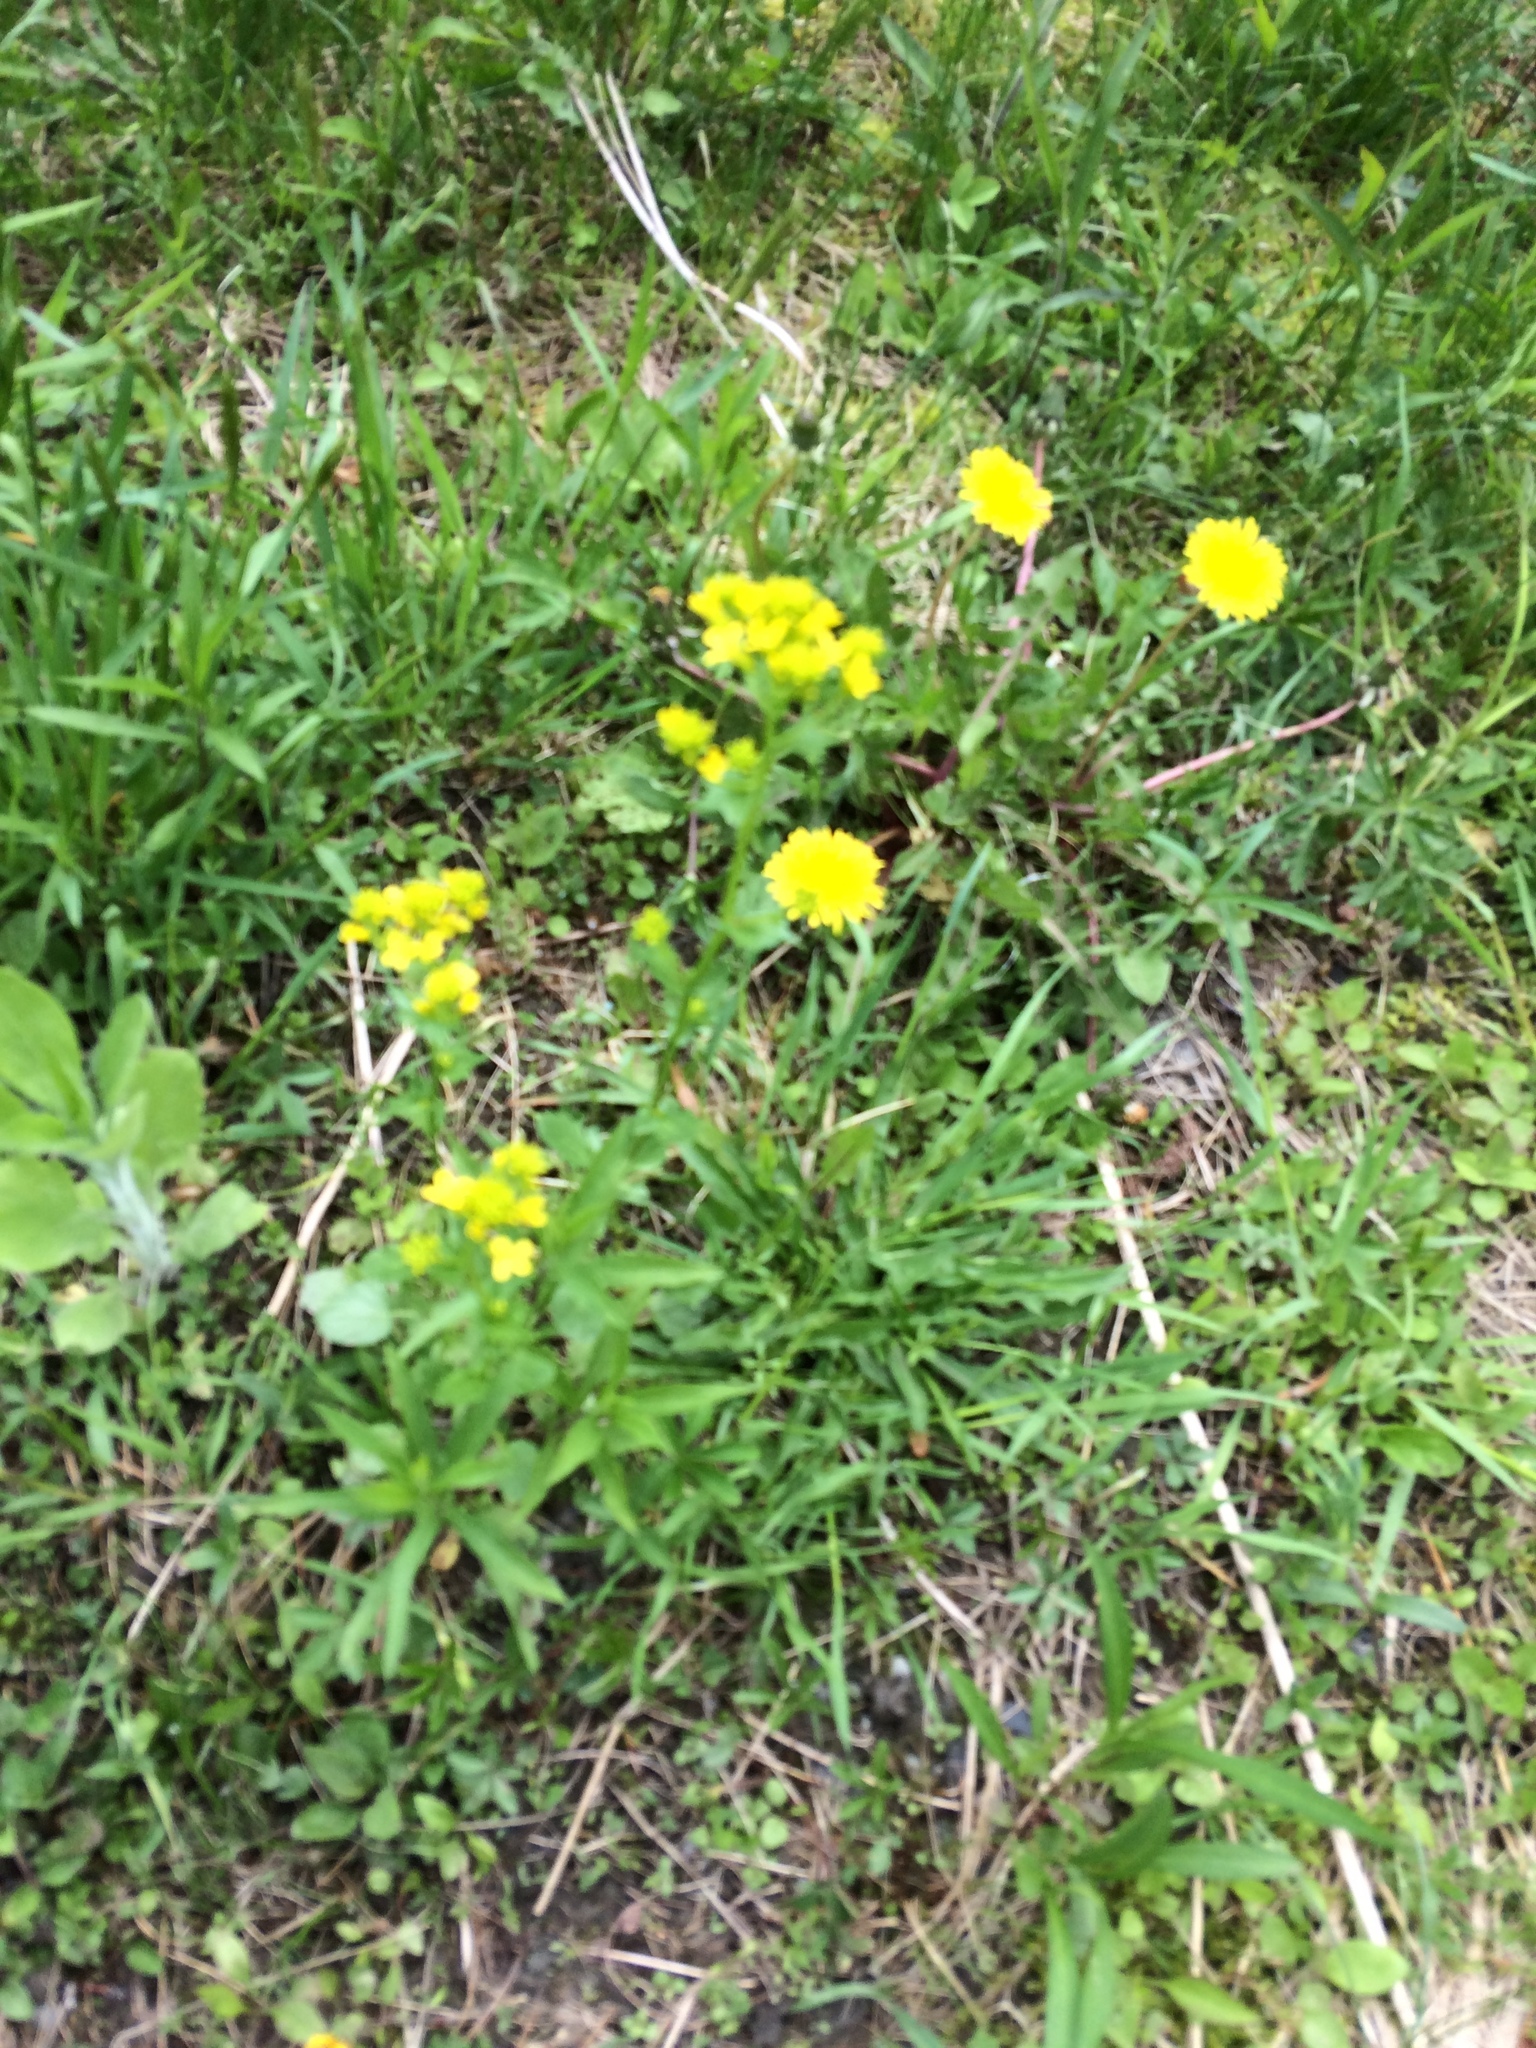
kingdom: Plantae
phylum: Tracheophyta
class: Magnoliopsida
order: Brassicales
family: Brassicaceae
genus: Barbarea
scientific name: Barbarea vulgaris
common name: Cressy-greens
